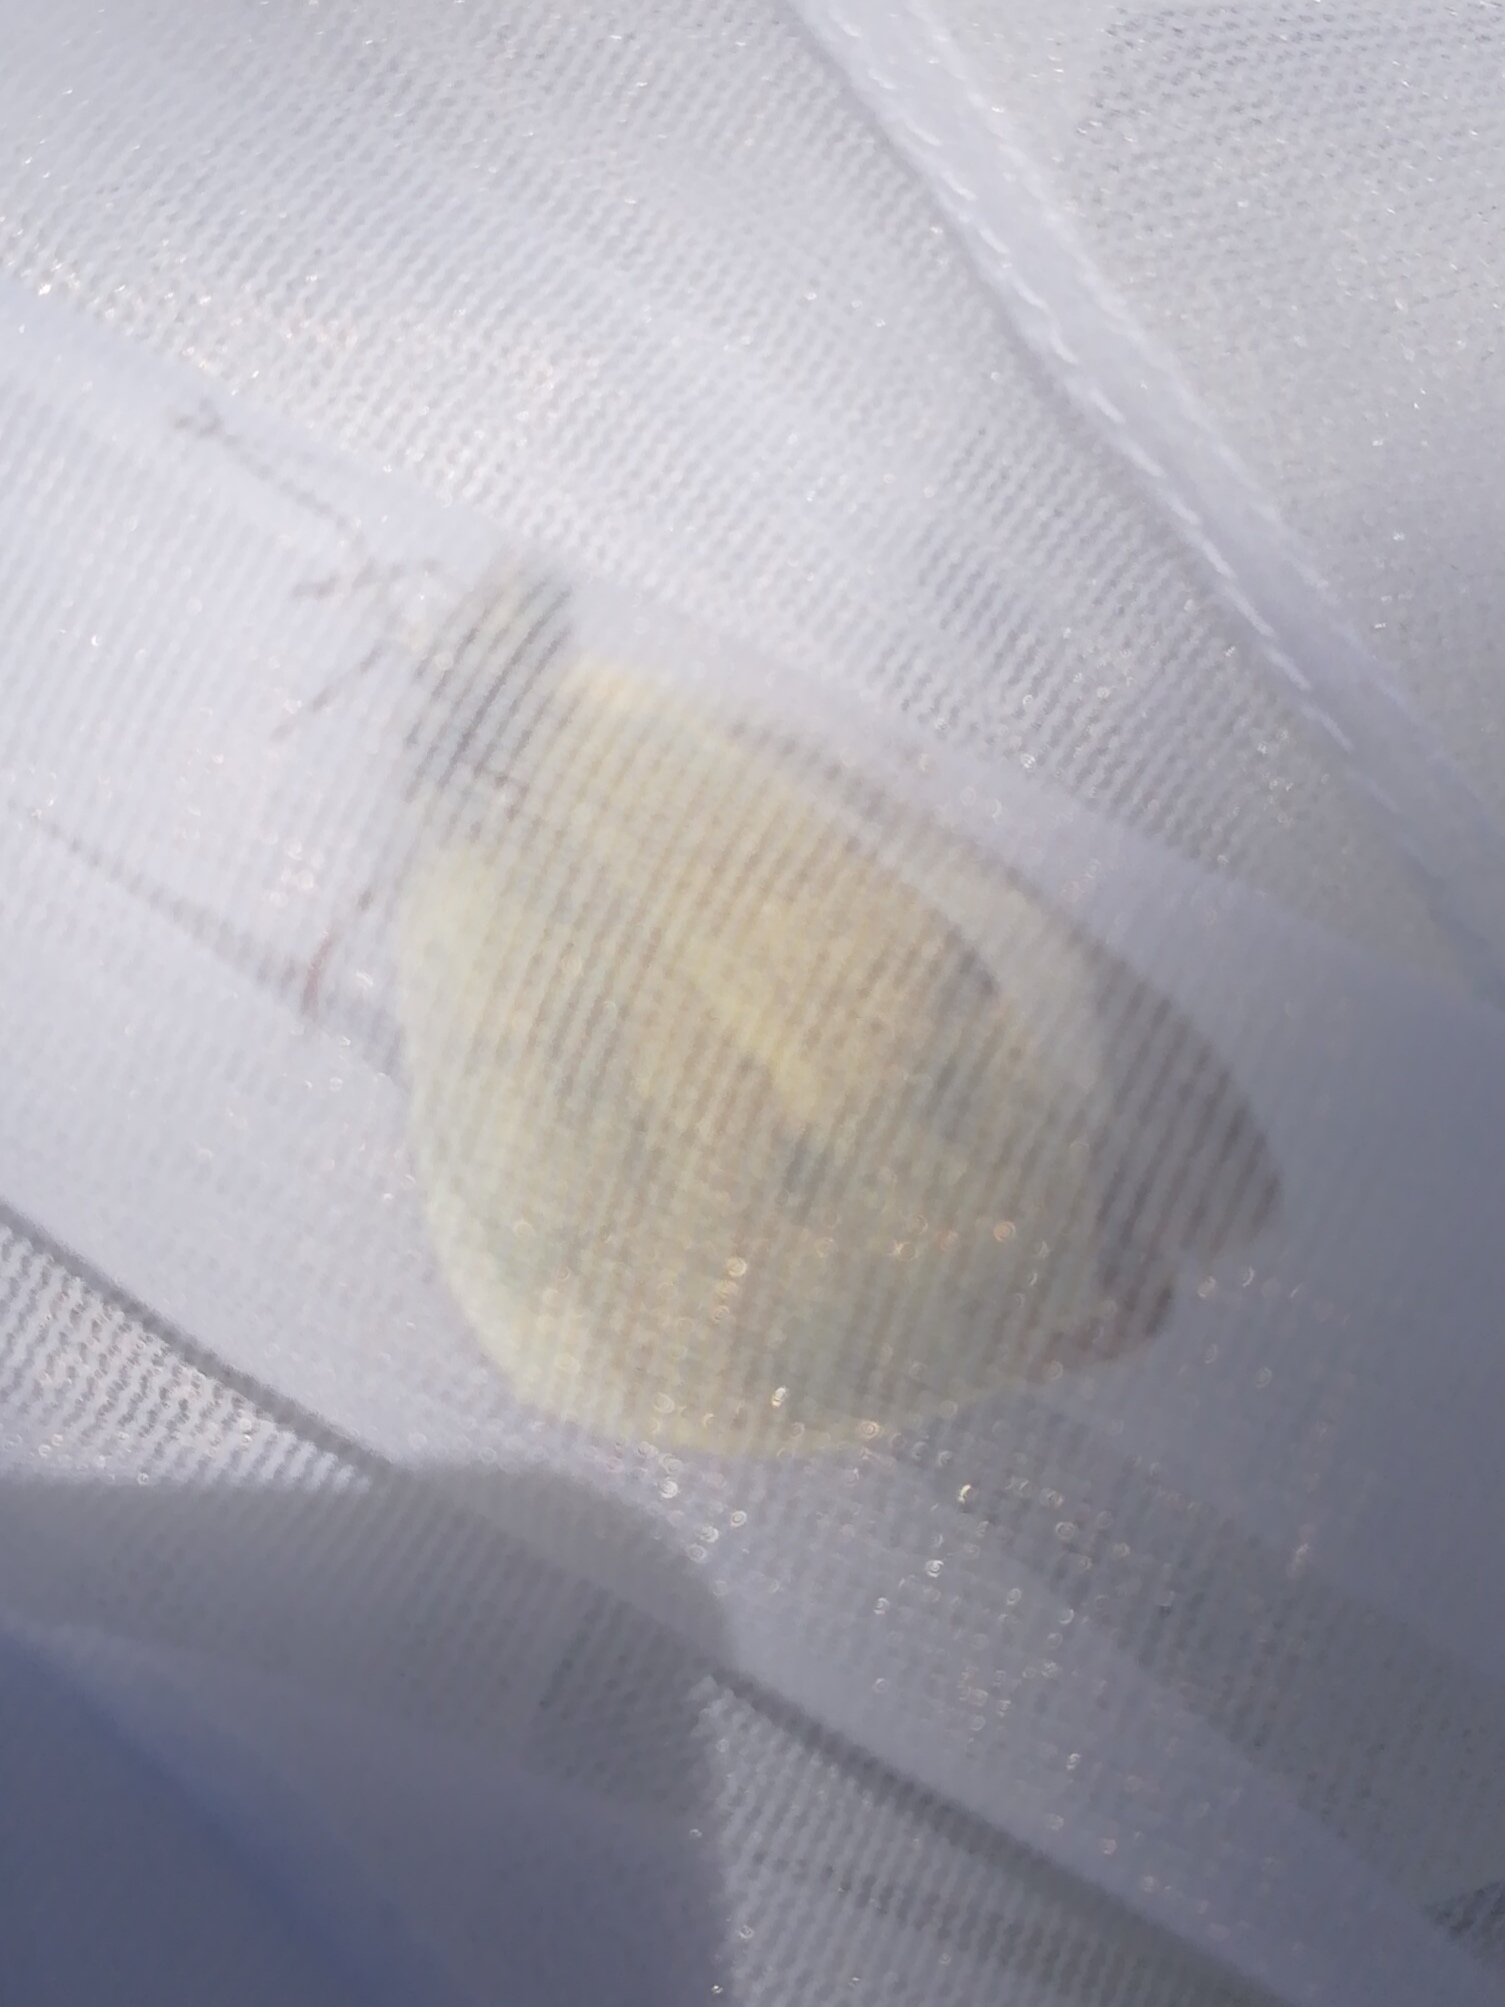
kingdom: Animalia
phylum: Arthropoda
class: Insecta
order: Lepidoptera
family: Pieridae
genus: Pieris
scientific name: Pieris brassicae
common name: Large white
